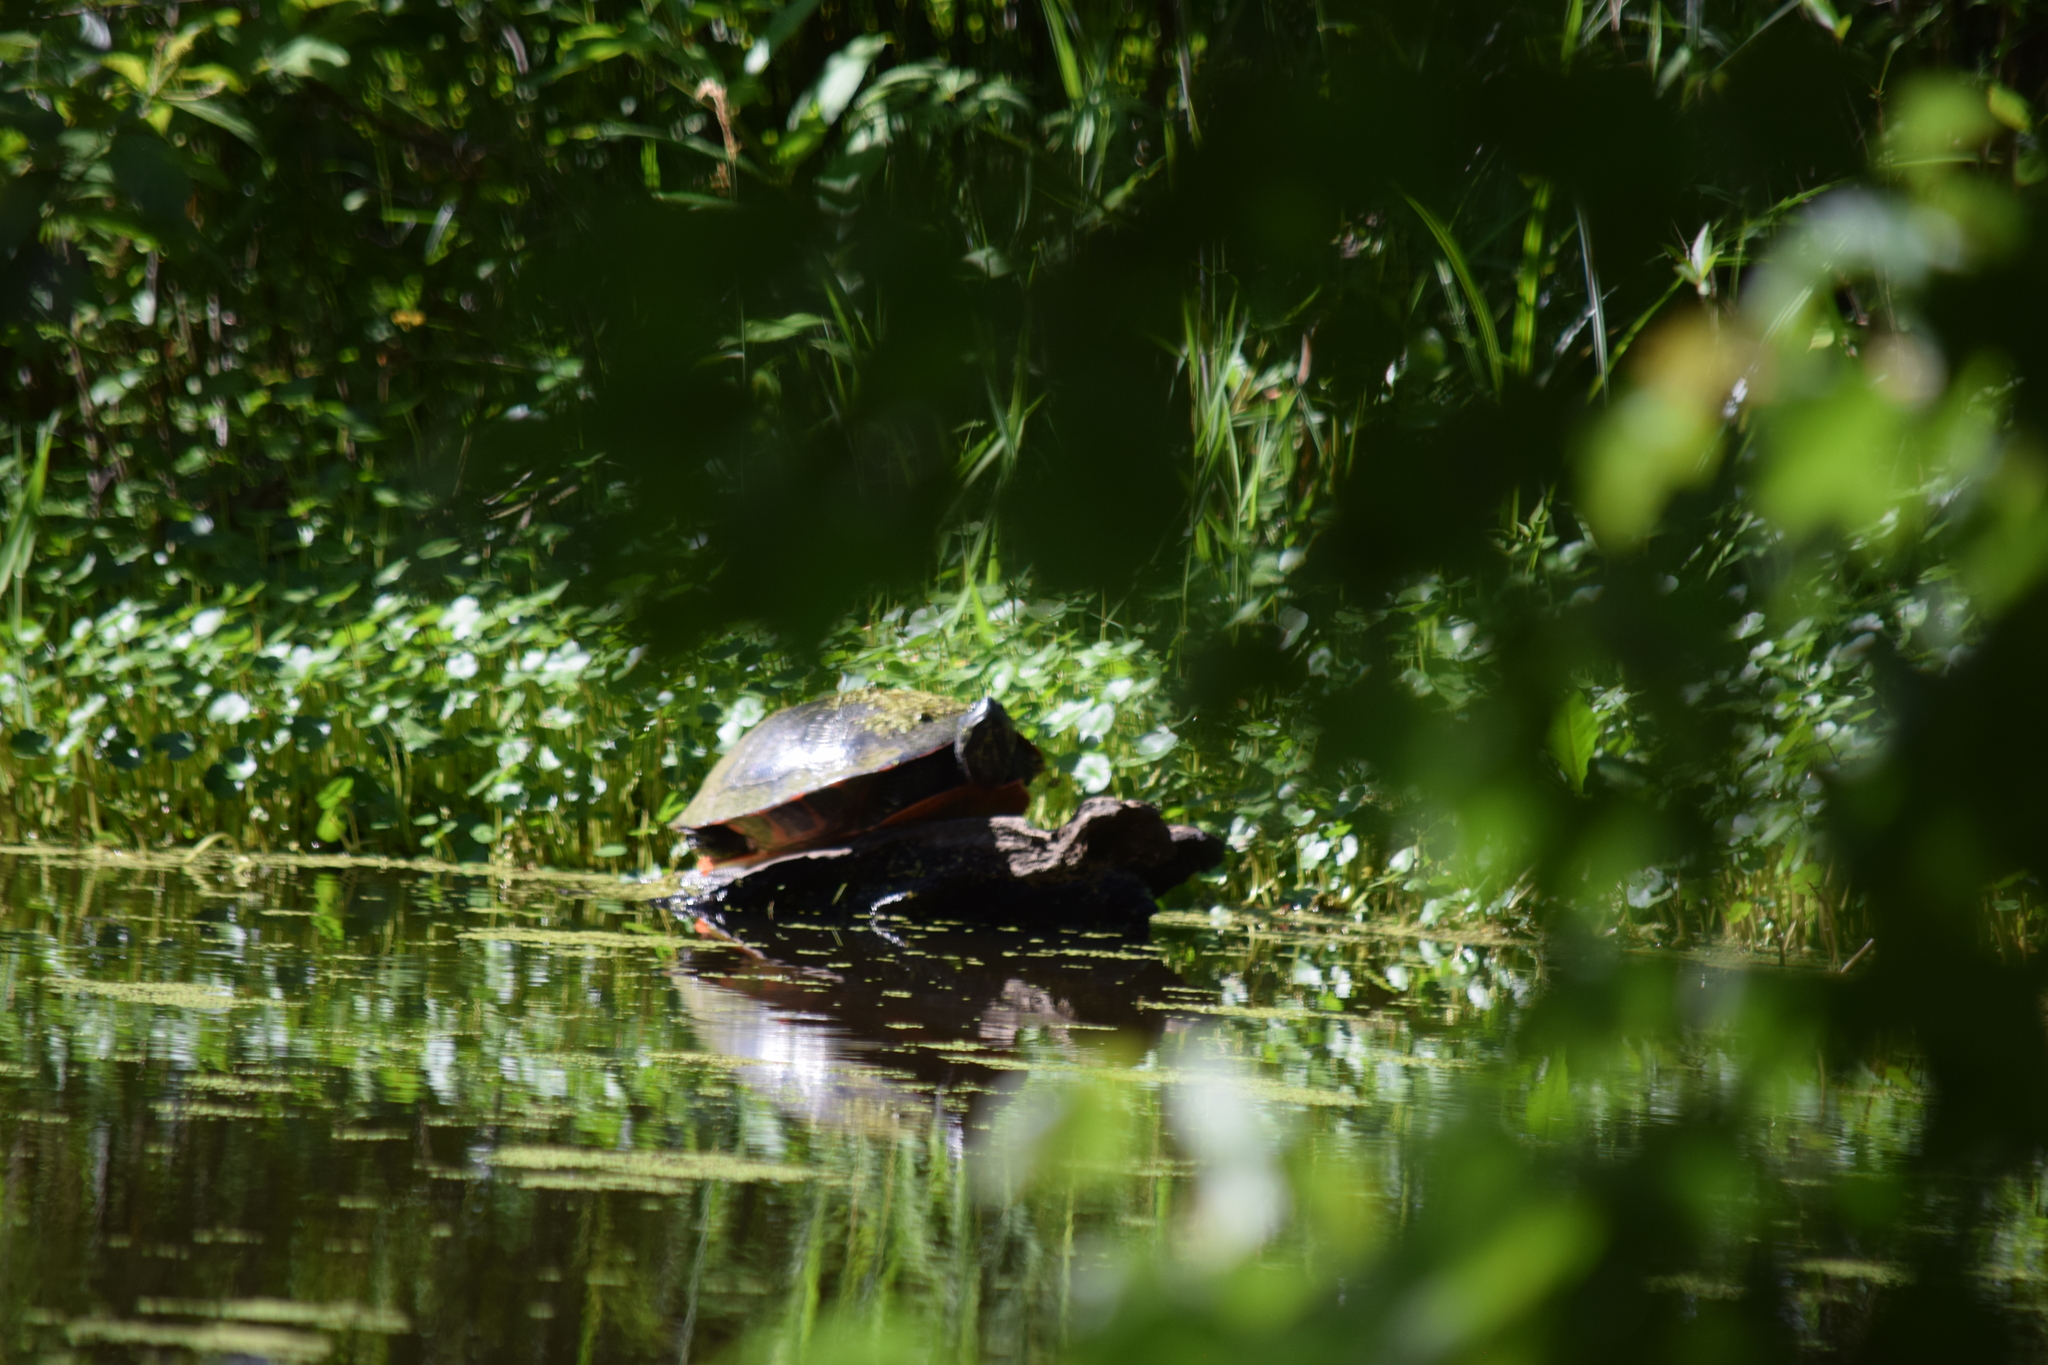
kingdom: Animalia
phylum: Chordata
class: Testudines
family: Emydidae
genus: Pseudemys
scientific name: Pseudemys rubriventris
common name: American red-bellied turtle
